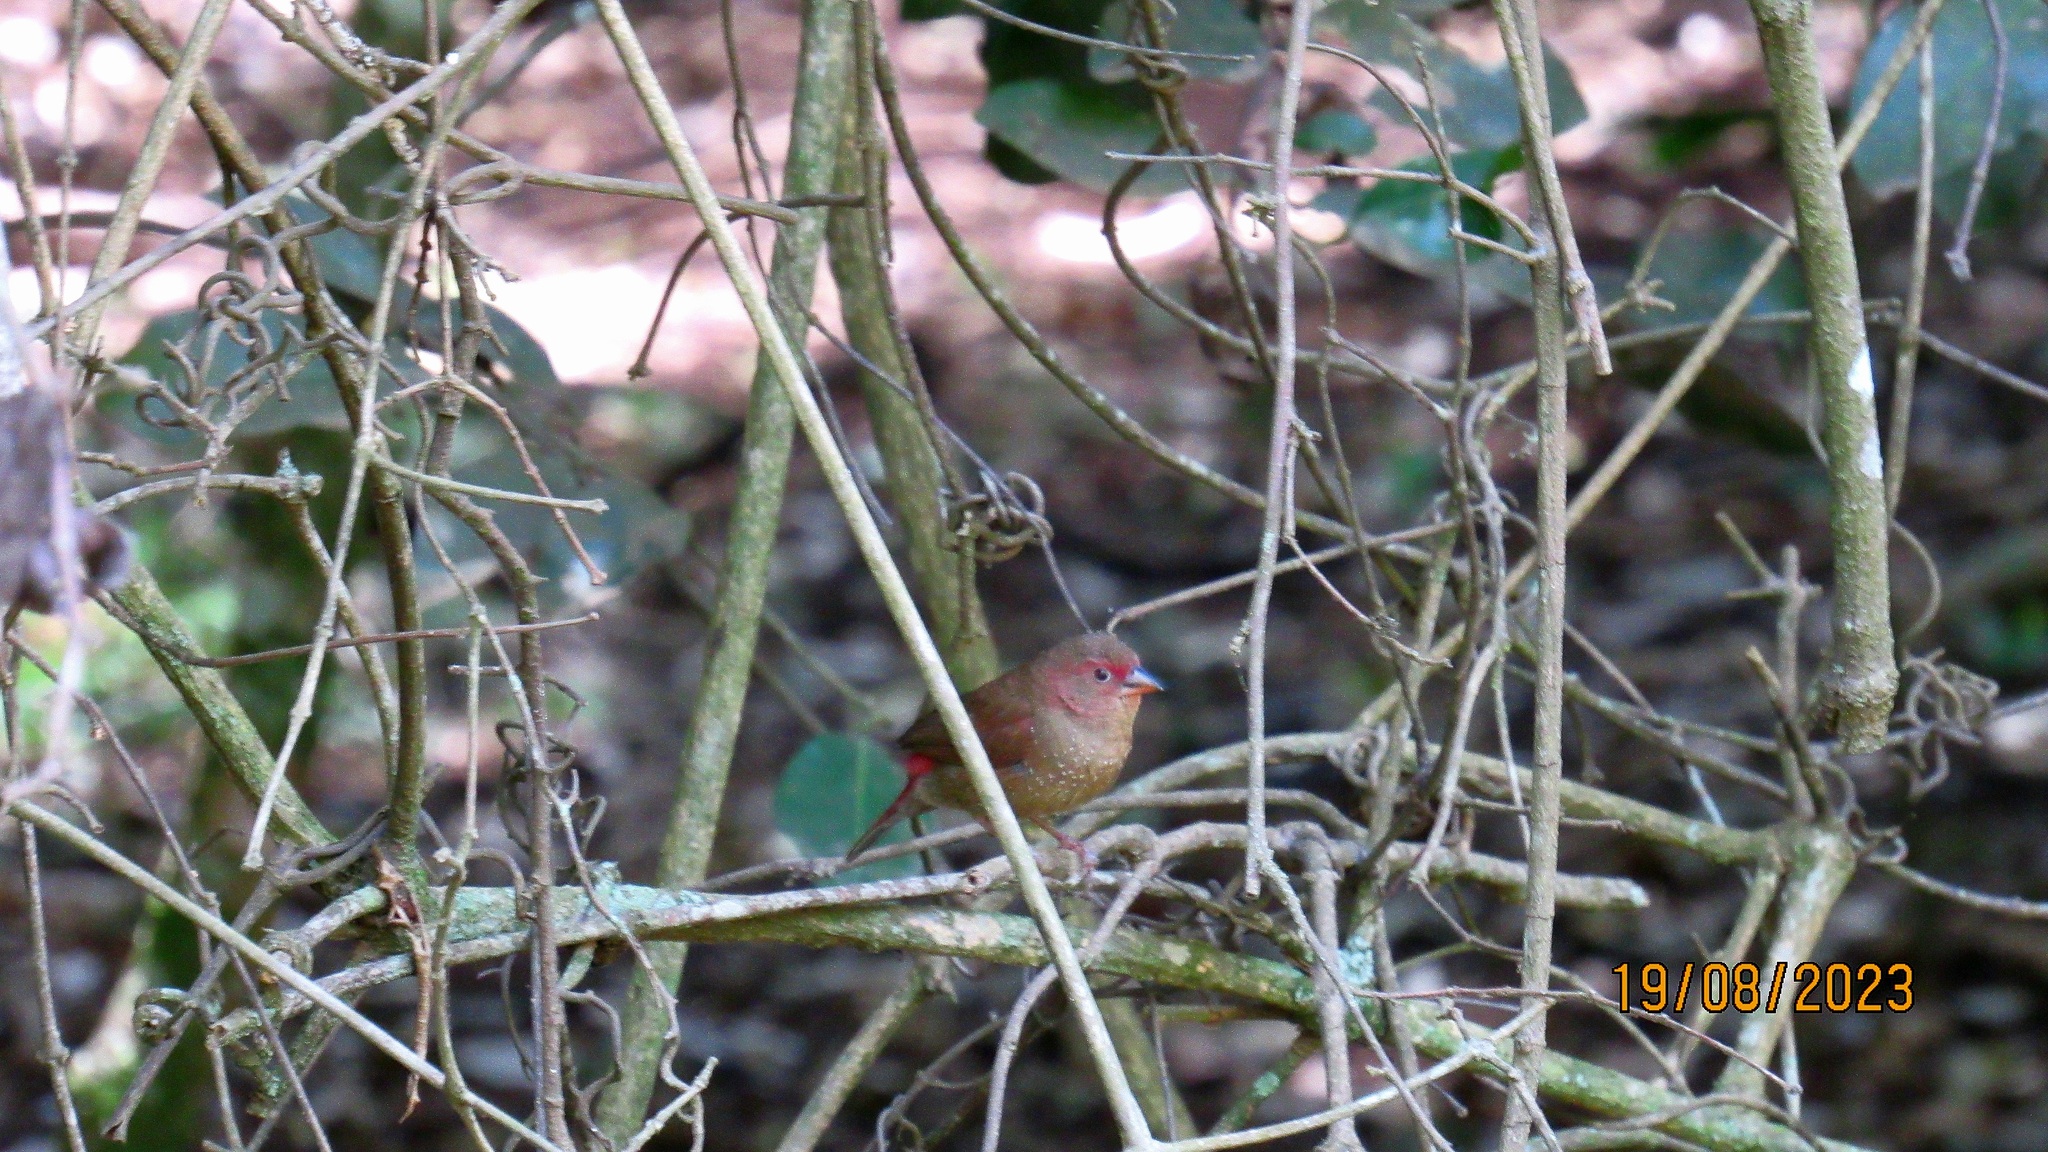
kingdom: Animalia
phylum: Chordata
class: Aves
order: Passeriformes
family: Estrildidae
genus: Lagonosticta
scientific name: Lagonosticta senegala
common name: Red-billed firefinch
